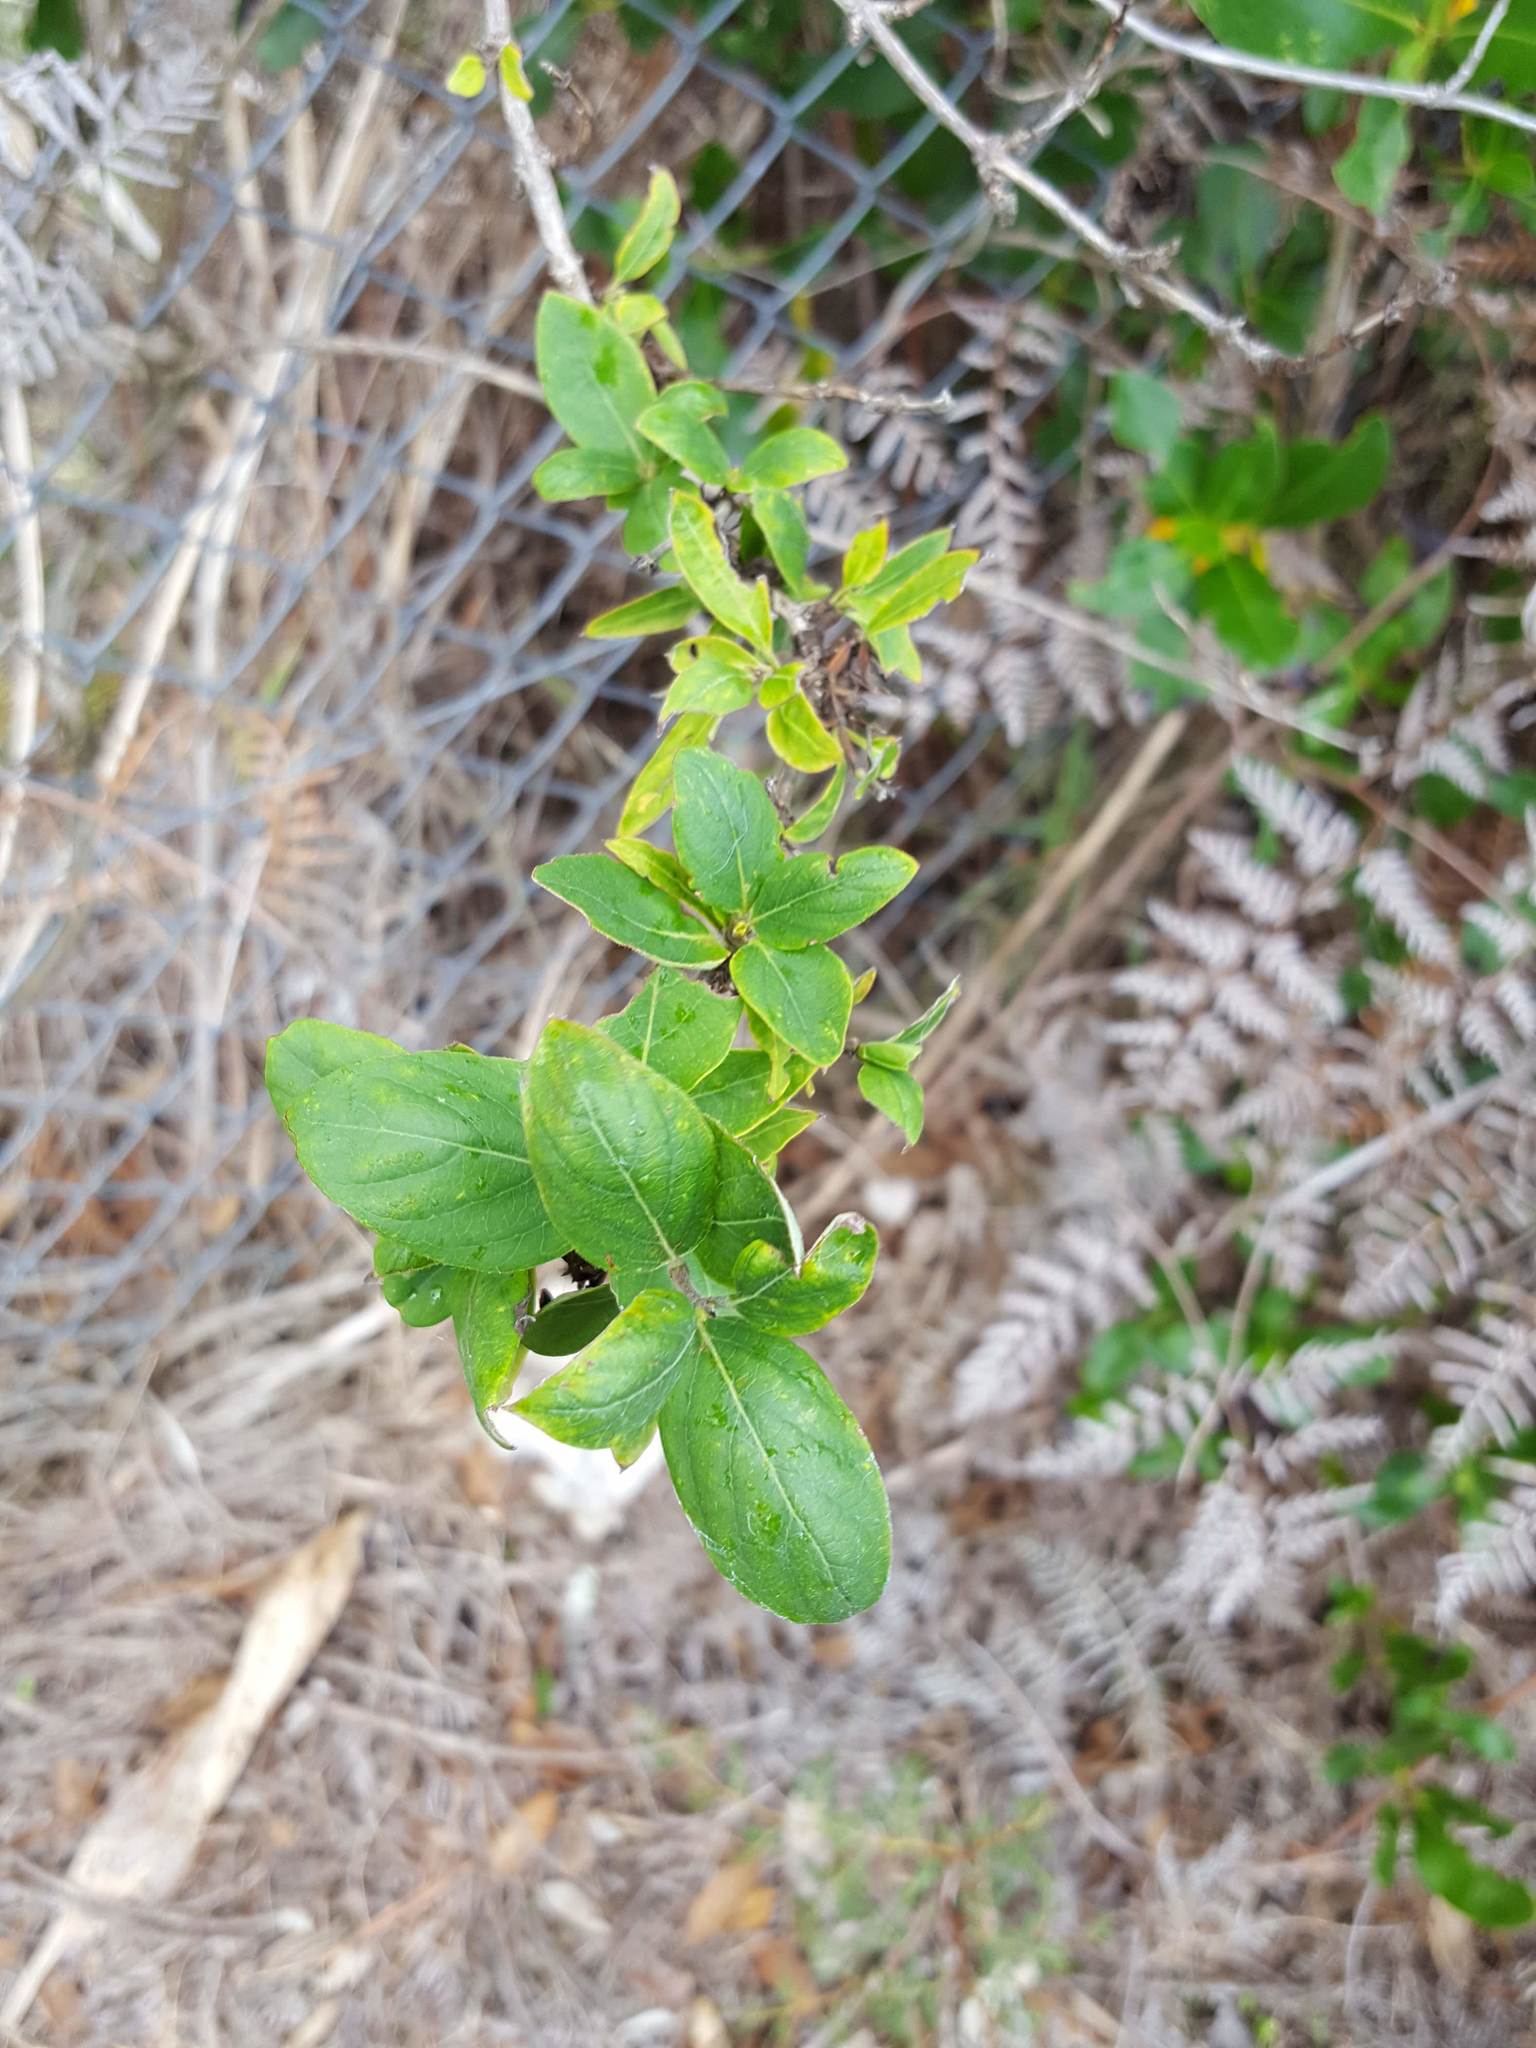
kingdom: Plantae
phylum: Tracheophyta
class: Magnoliopsida
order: Dipsacales
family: Caprifoliaceae
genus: Lonicera
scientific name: Lonicera japonica
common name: Japanese honeysuckle
